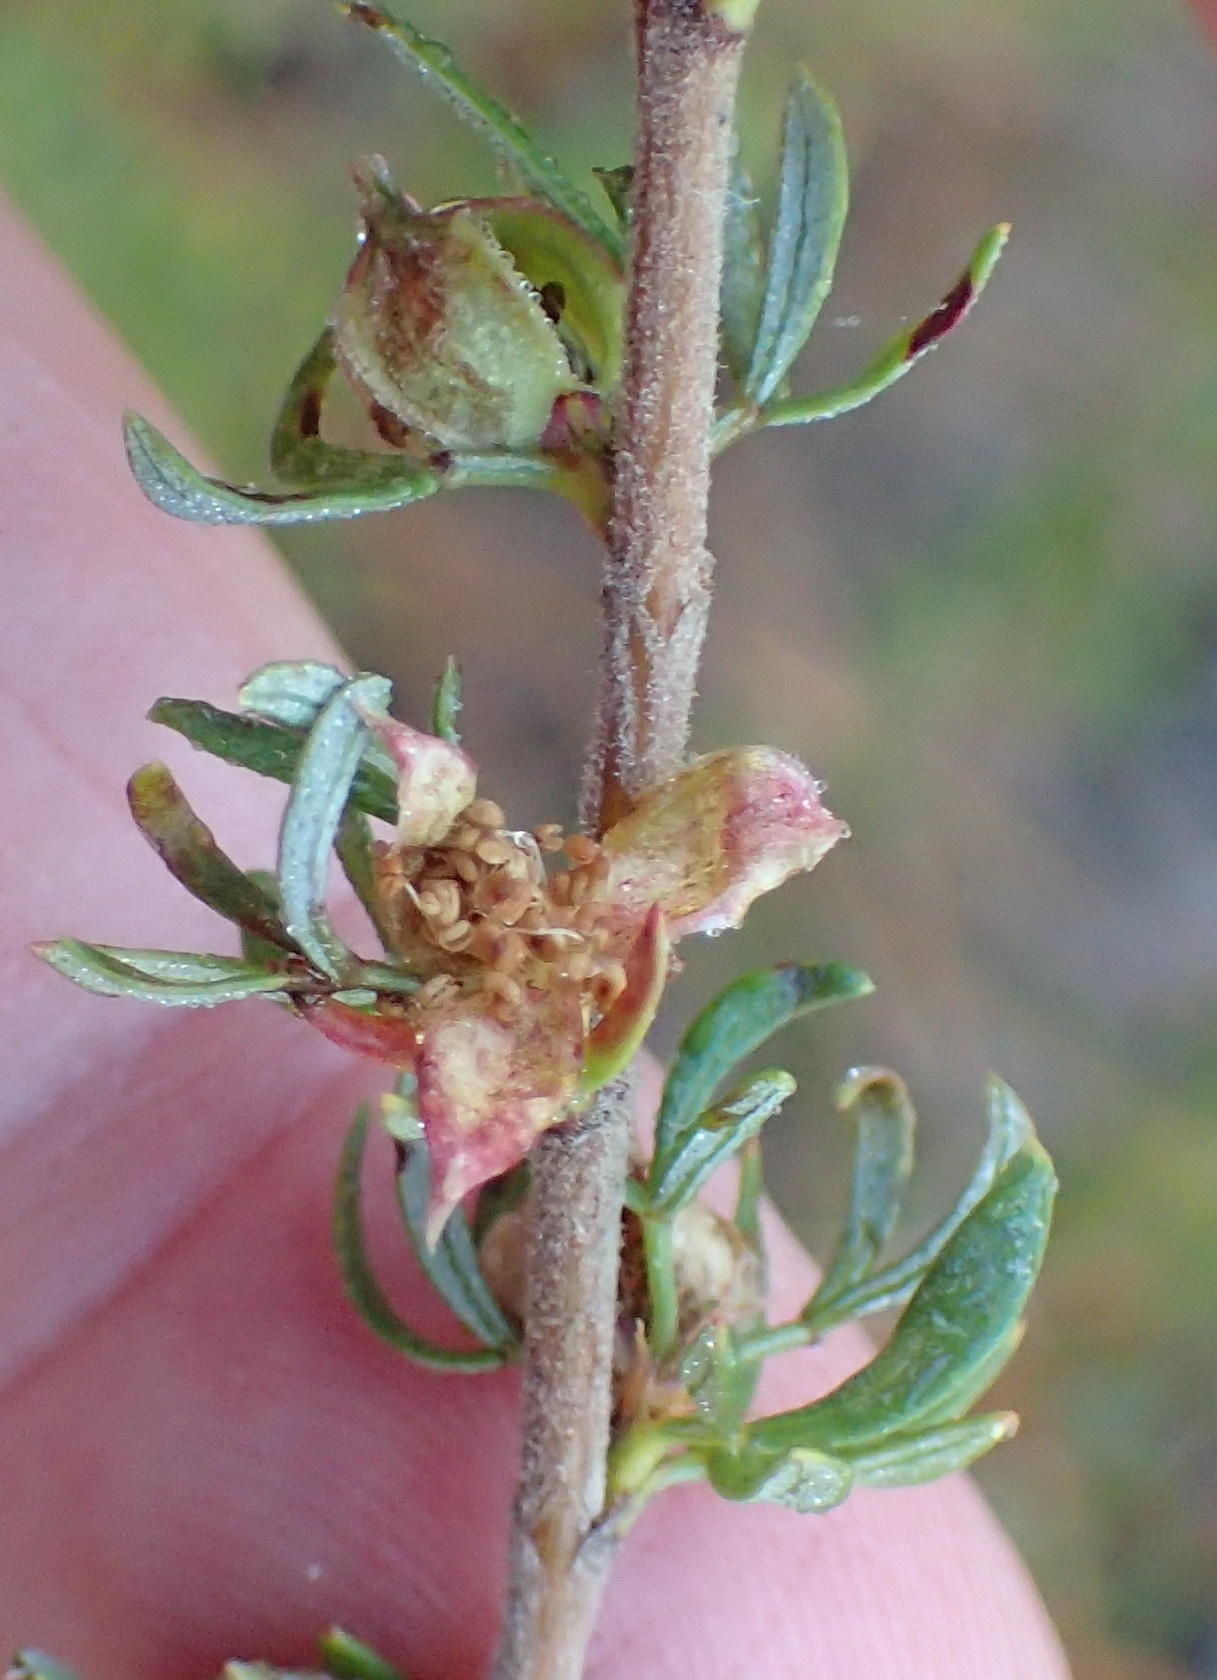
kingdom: Plantae
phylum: Tracheophyta
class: Magnoliopsida
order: Rosales
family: Rosaceae
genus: Cliffortia
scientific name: Cliffortia falcata
